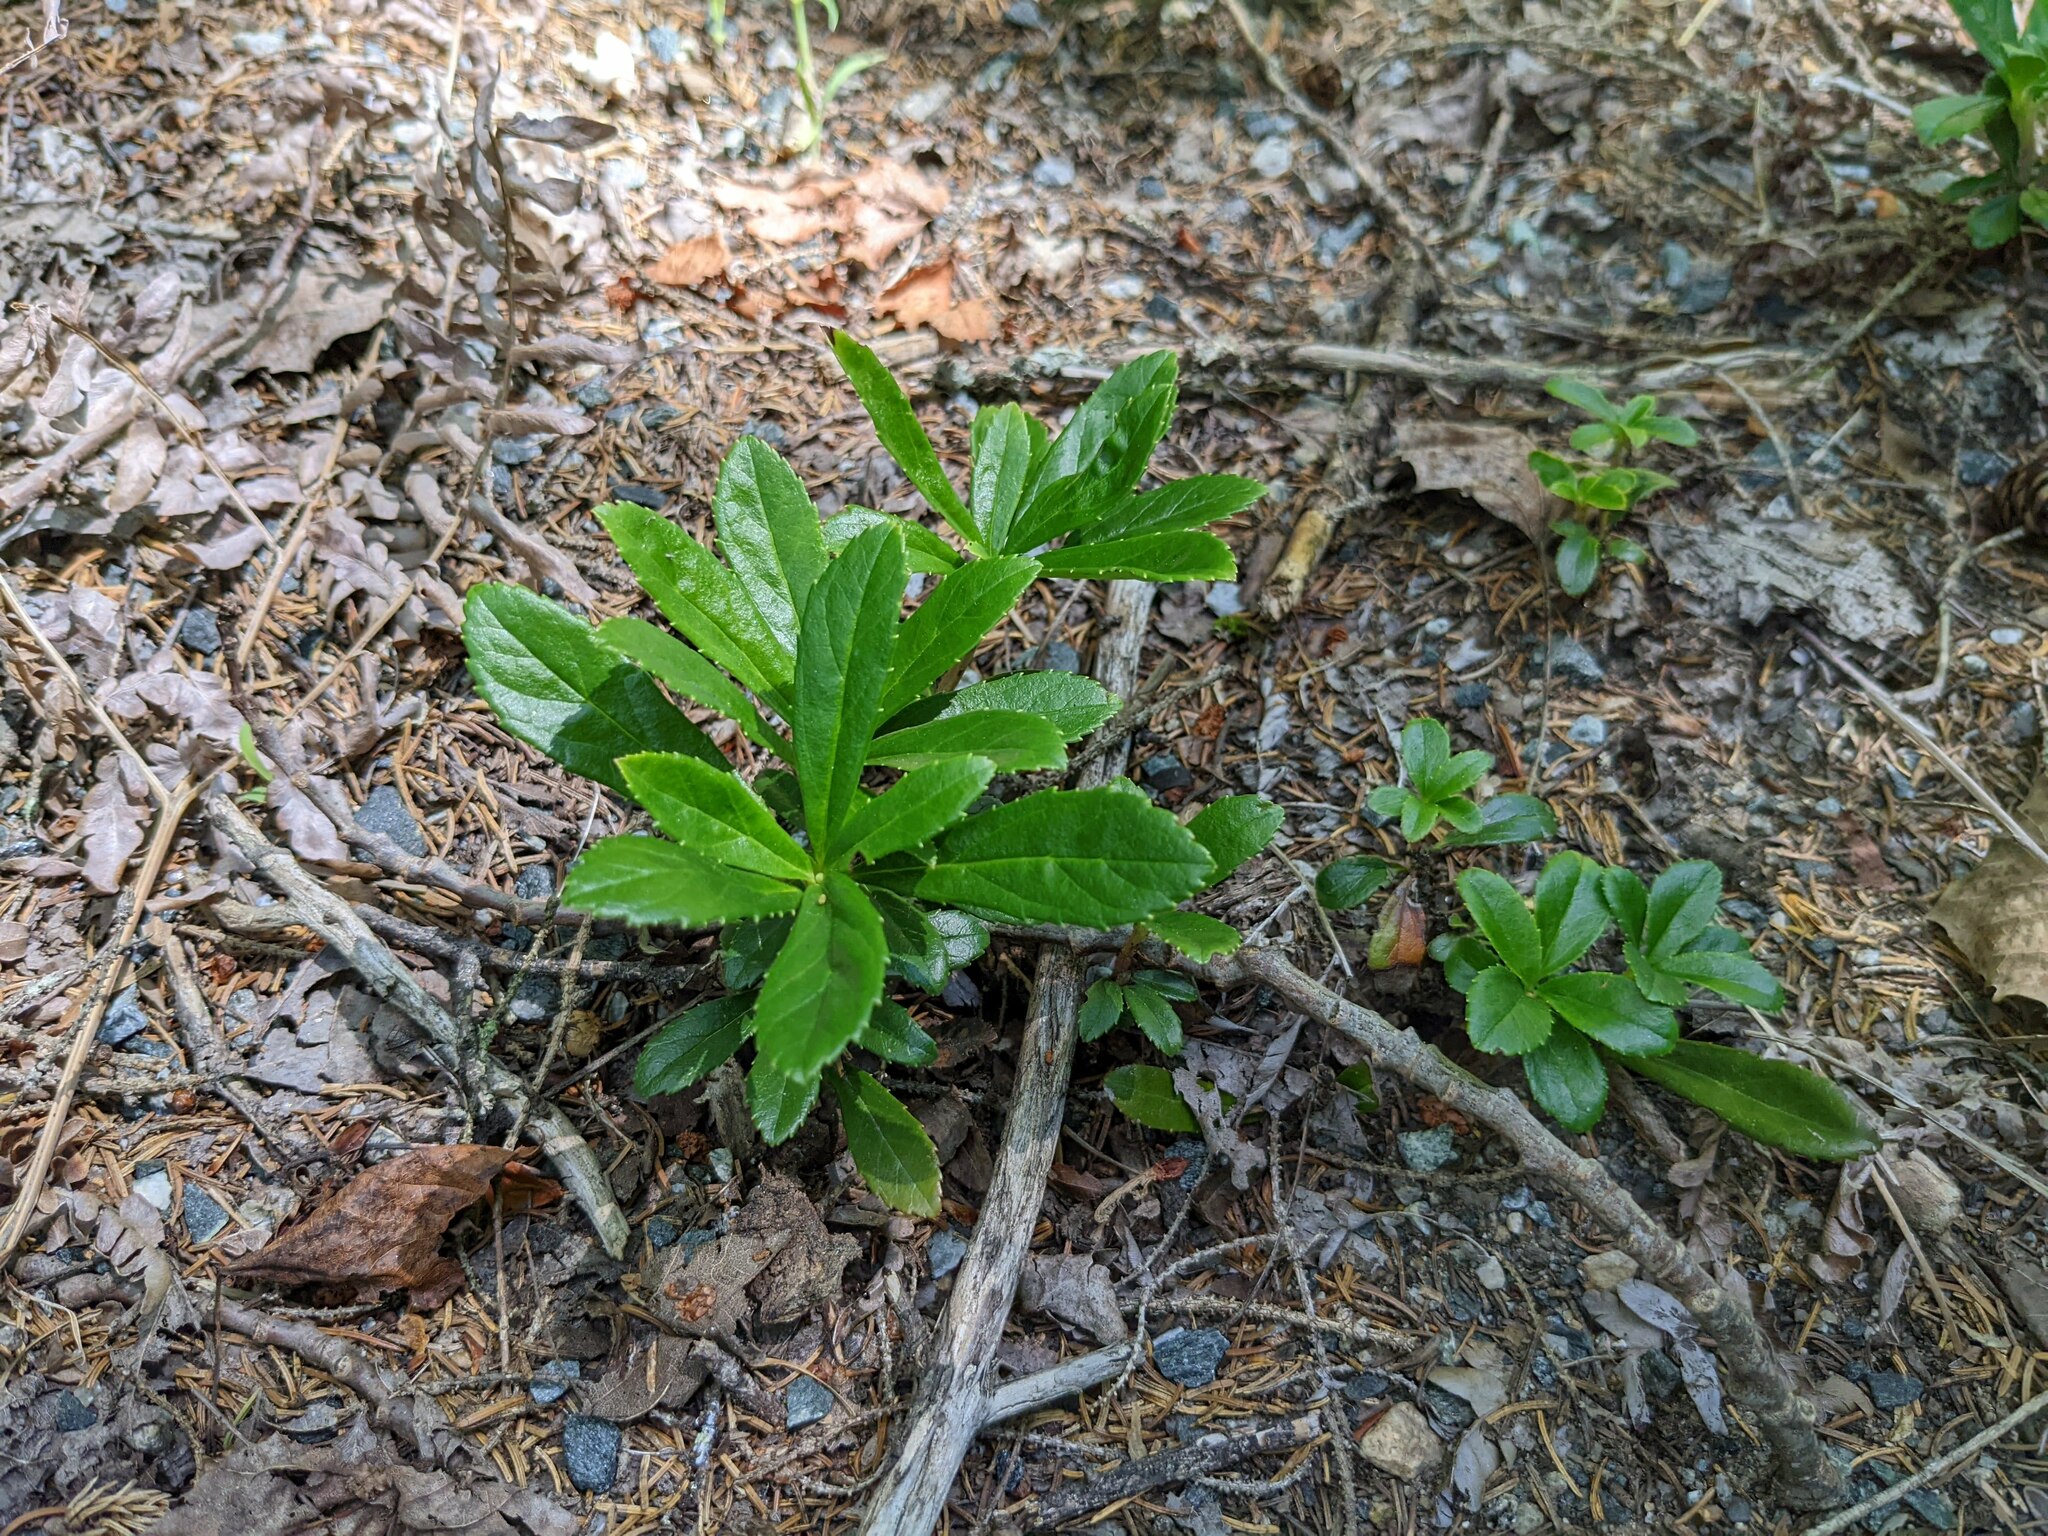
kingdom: Plantae
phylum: Tracheophyta
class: Magnoliopsida
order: Ericales
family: Ericaceae
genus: Chimaphila
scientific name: Chimaphila umbellata
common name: Pipsissewa
